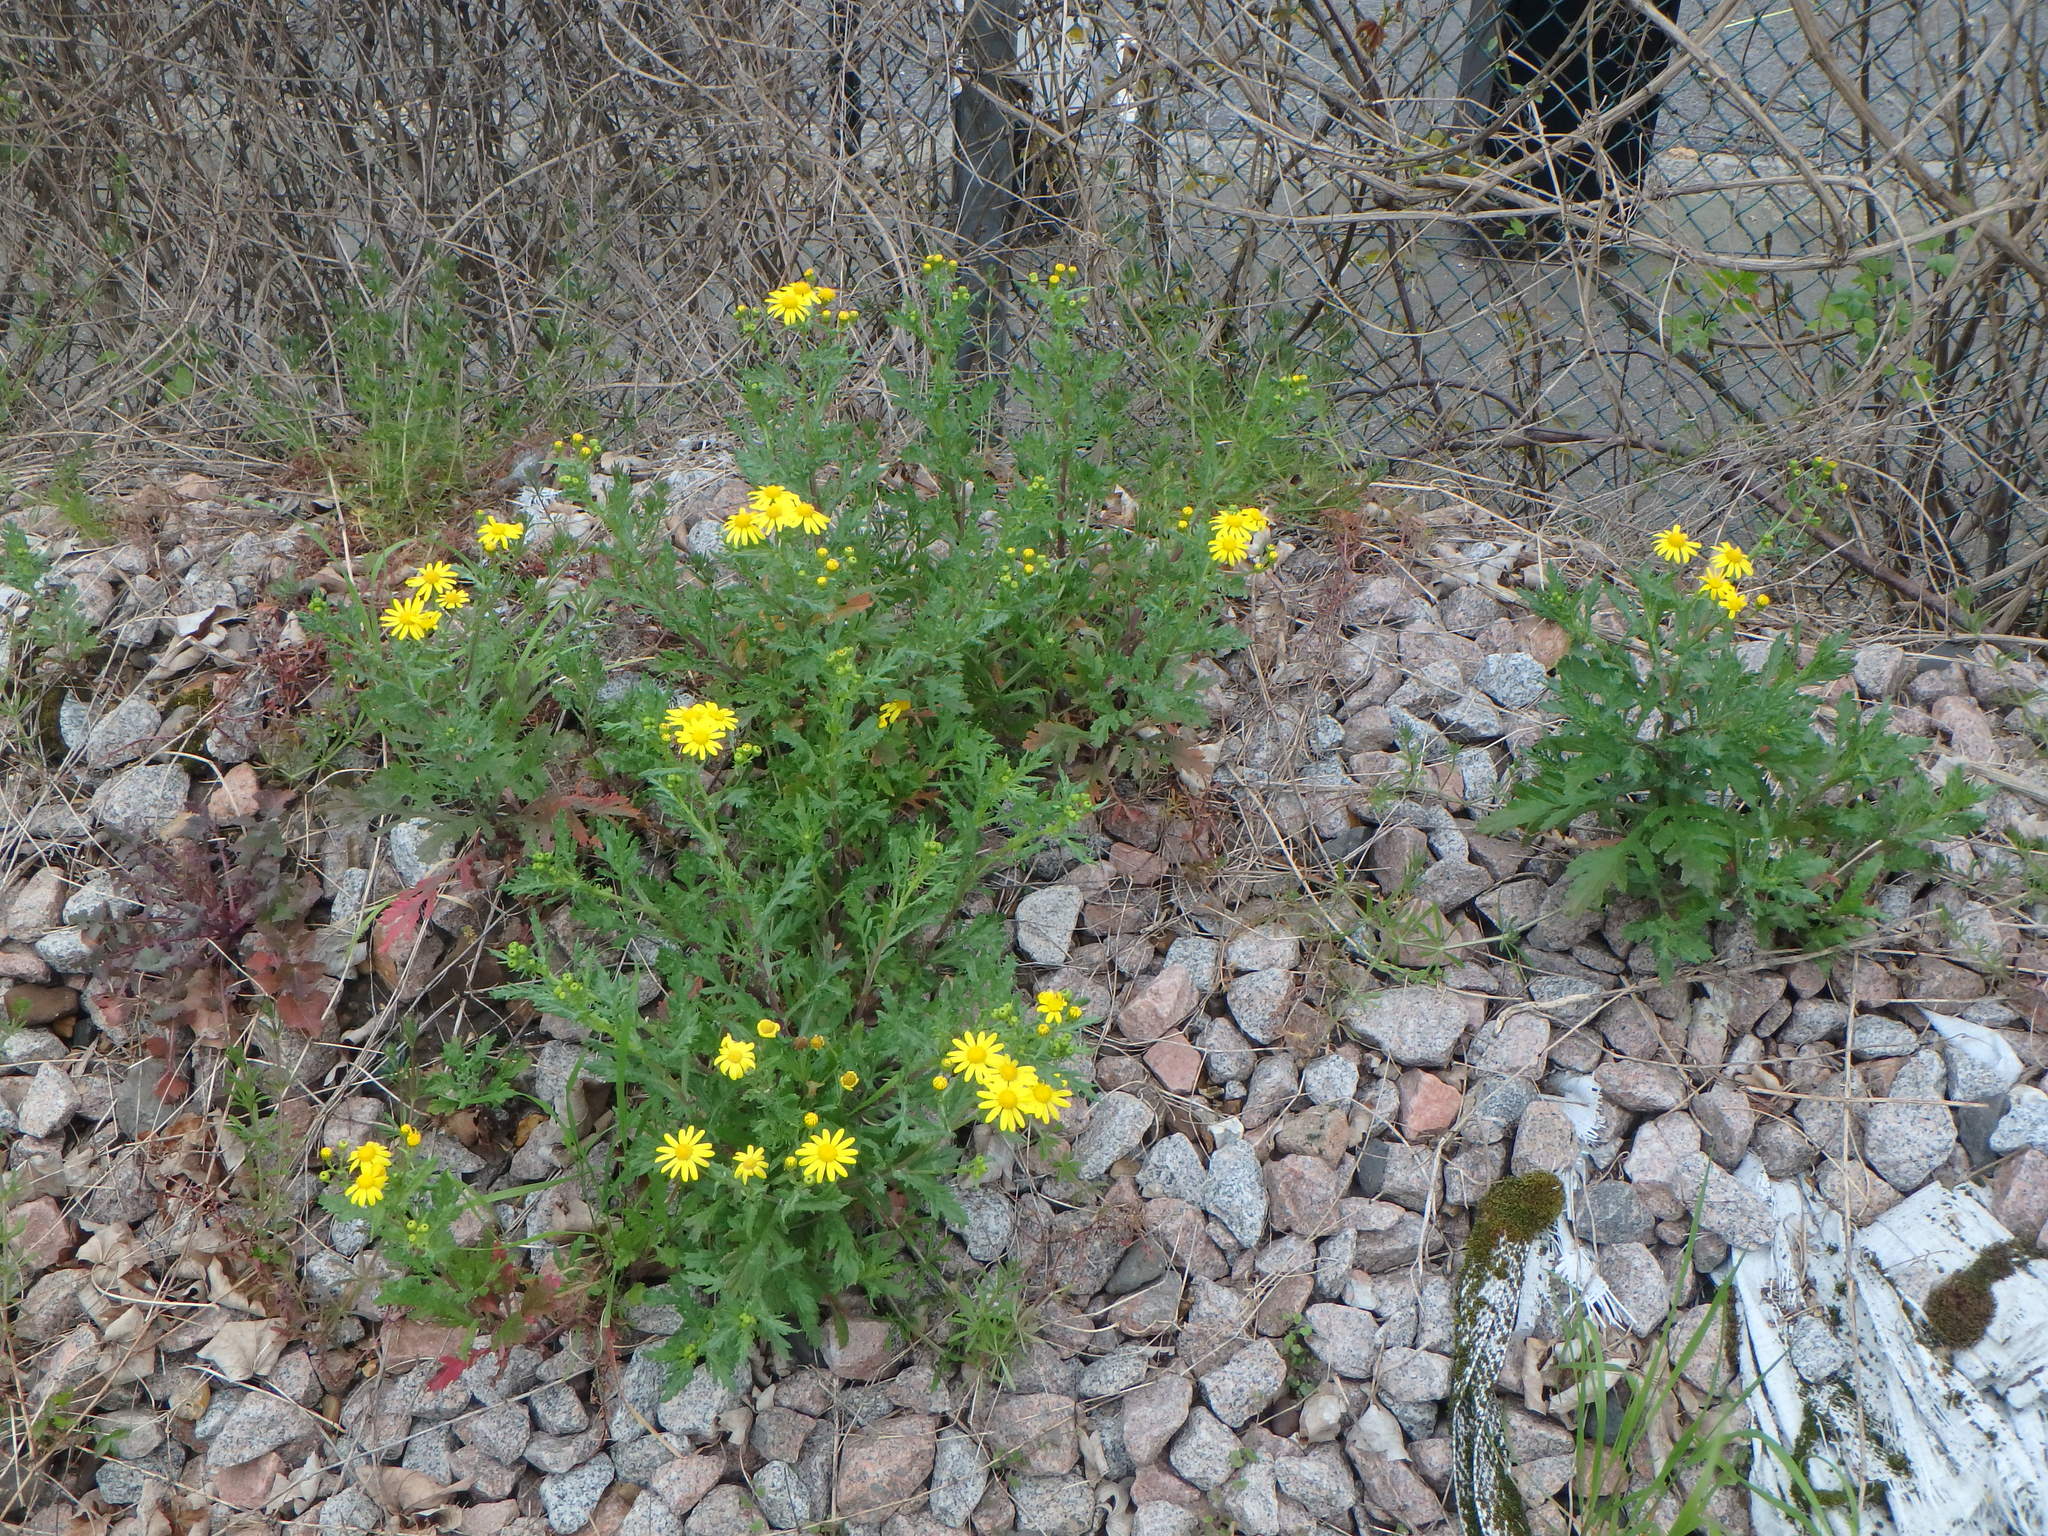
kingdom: Plantae
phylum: Tracheophyta
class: Magnoliopsida
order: Asterales
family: Asteraceae
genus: Senecio
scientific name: Senecio squalidus
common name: Oxford ragwort
